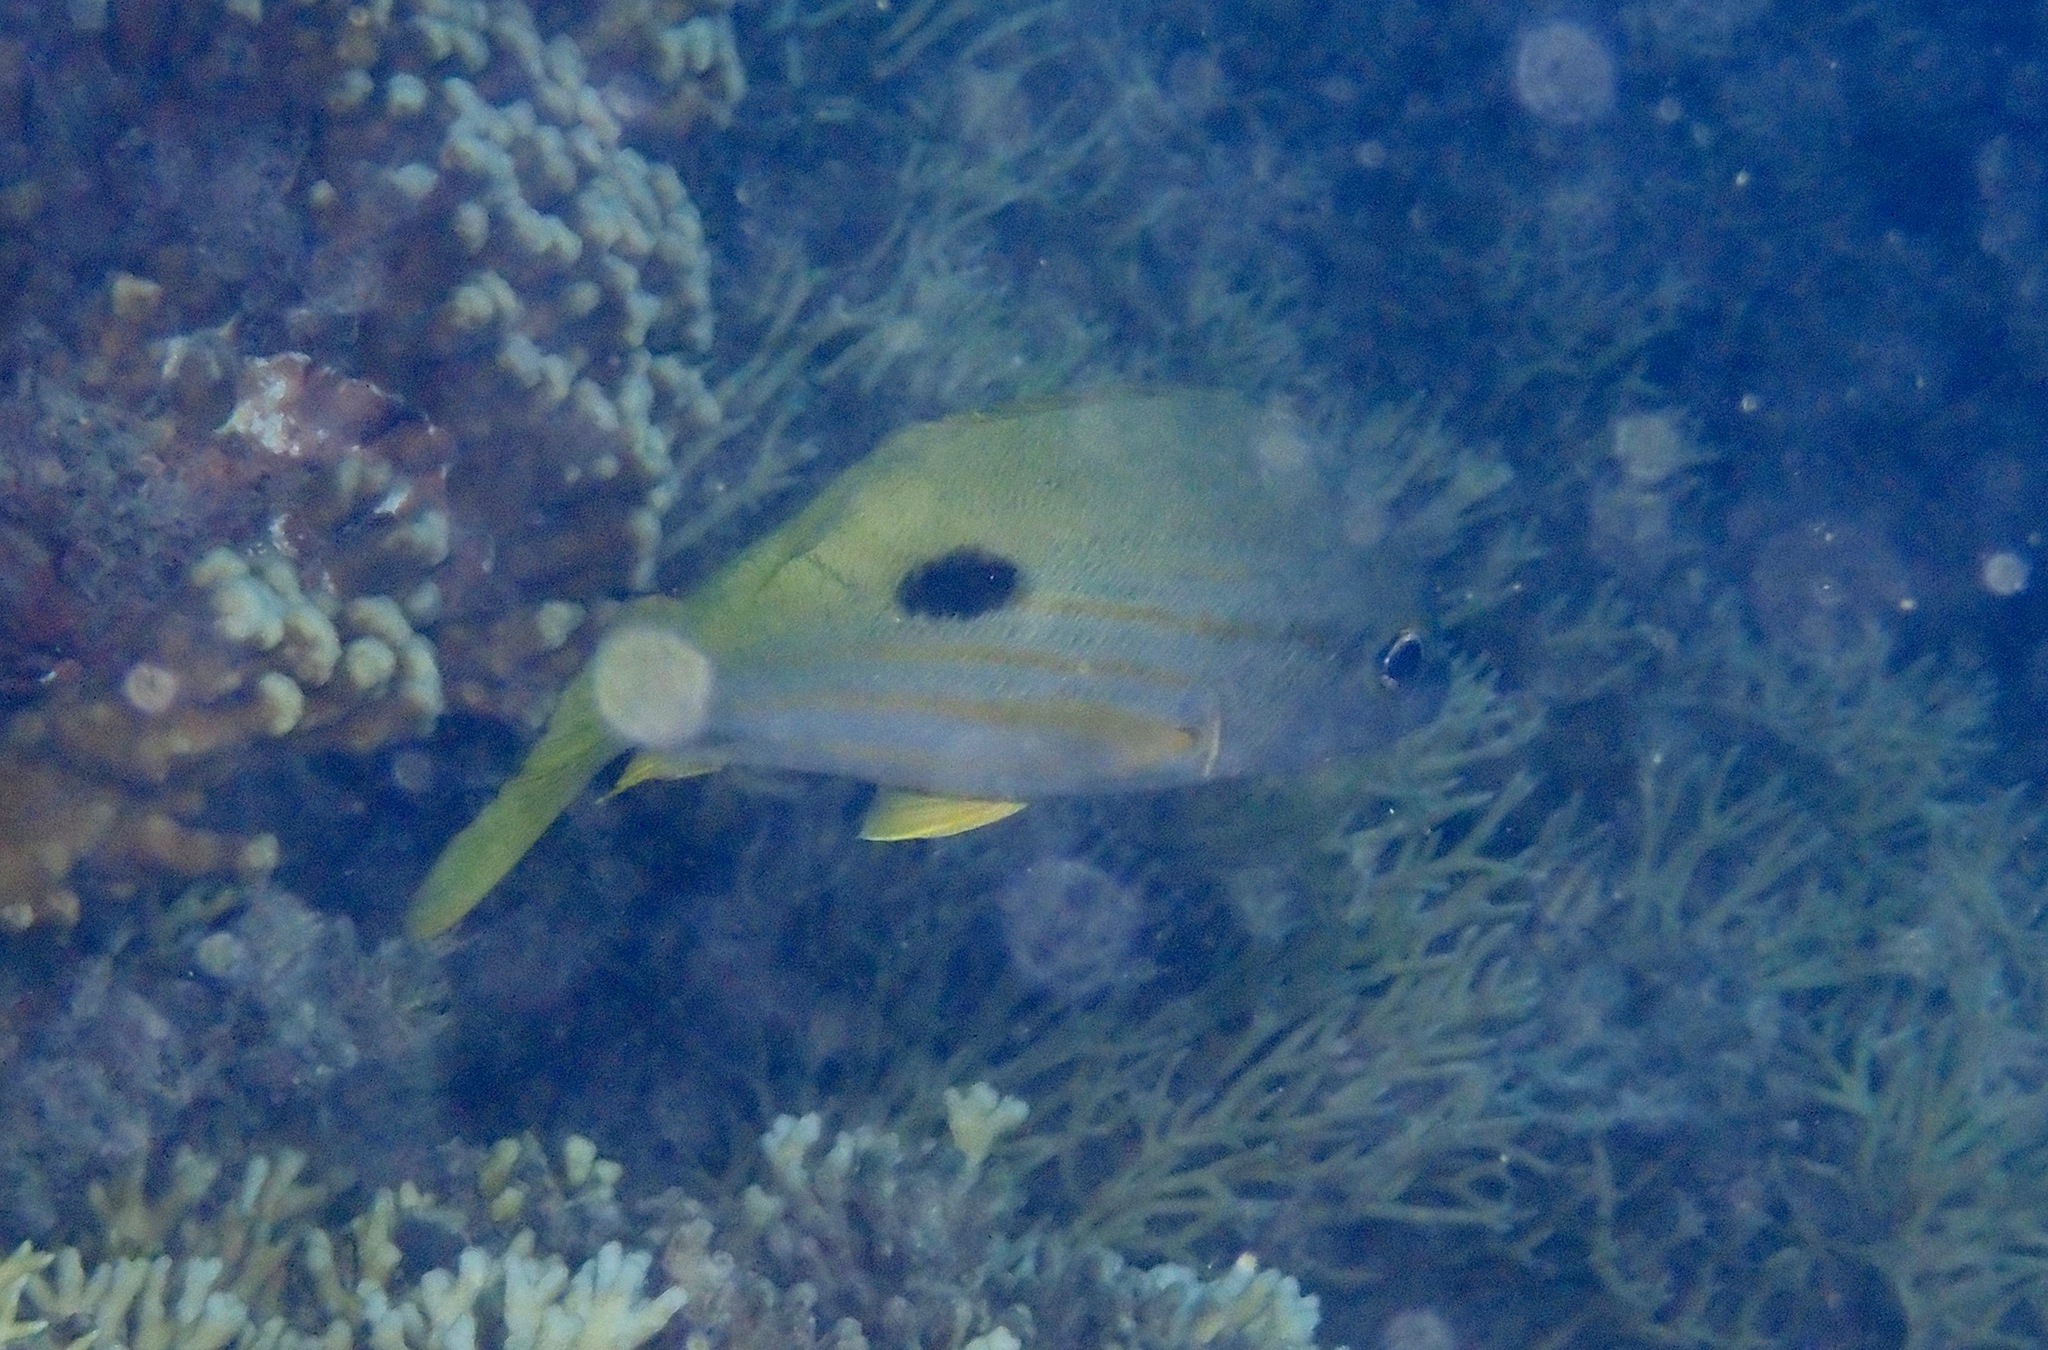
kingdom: Animalia
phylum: Chordata
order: Perciformes
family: Lutjanidae
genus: Lutjanus
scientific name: Lutjanus fulviflamma
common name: Blackspot snapper
